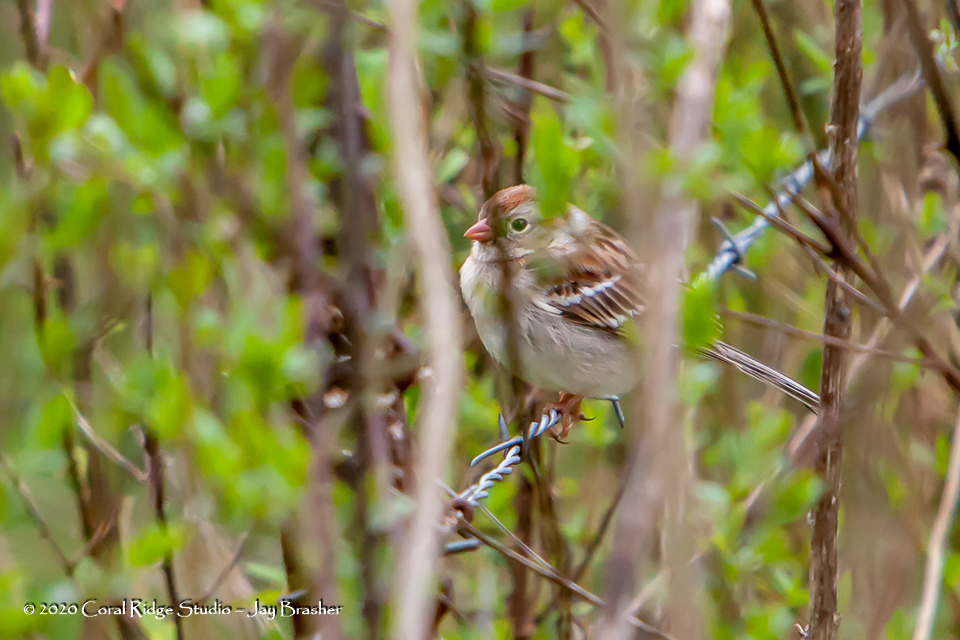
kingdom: Animalia
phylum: Chordata
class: Aves
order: Passeriformes
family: Passerellidae
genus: Spizella
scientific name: Spizella pusilla
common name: Field sparrow
